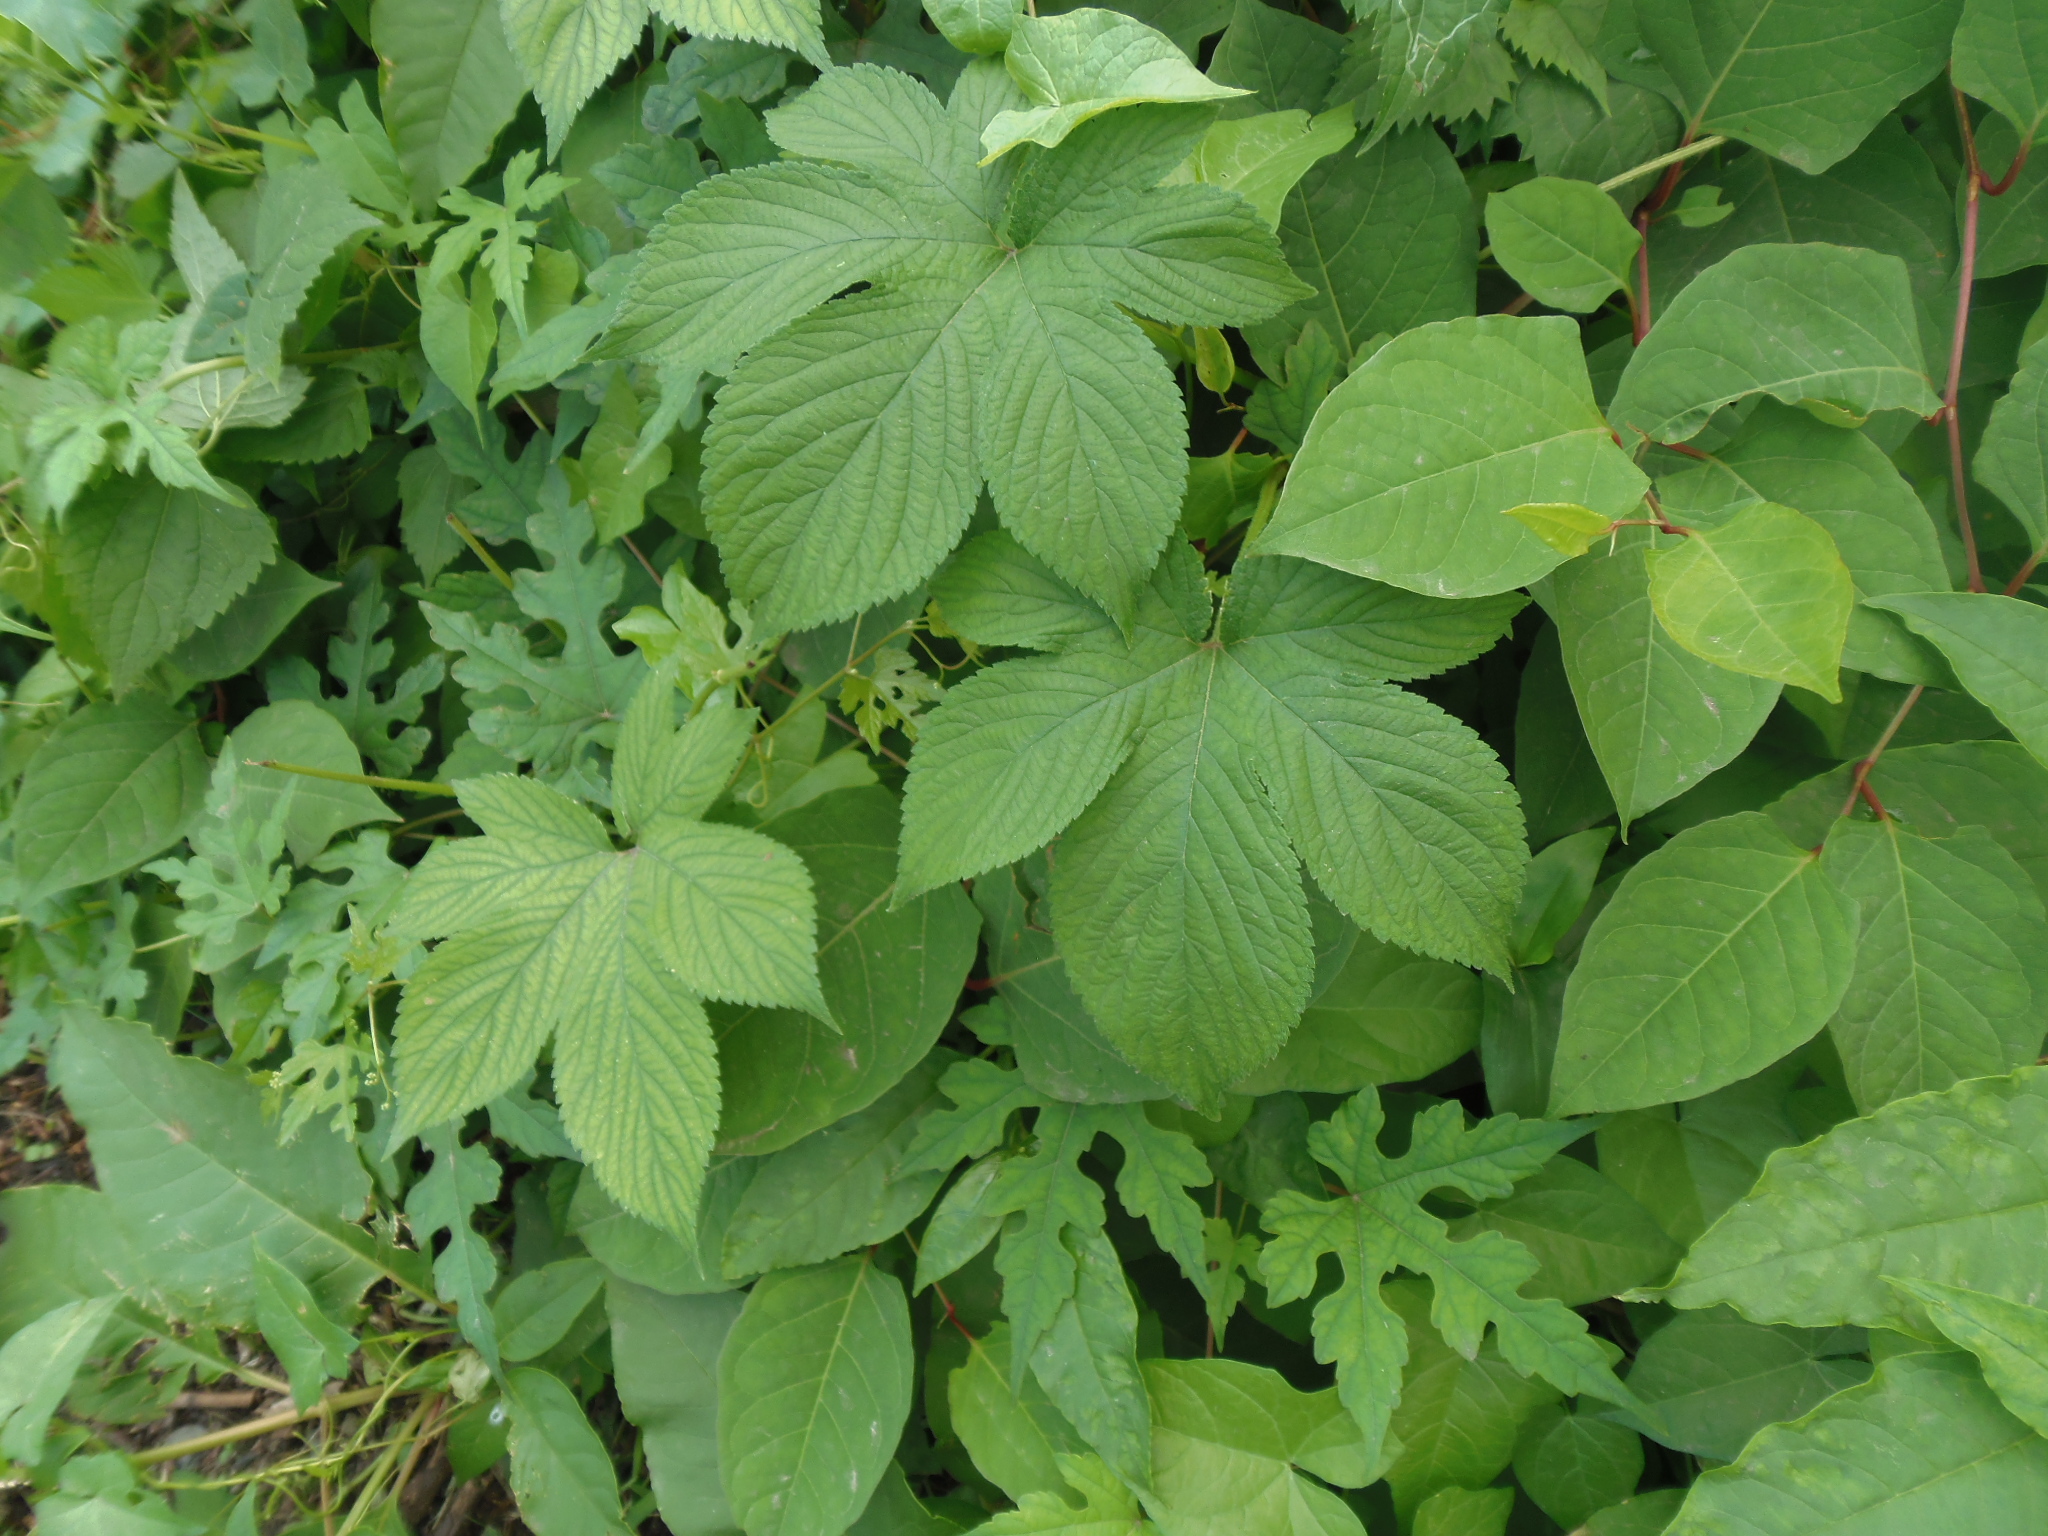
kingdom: Plantae
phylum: Tracheophyta
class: Magnoliopsida
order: Rosales
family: Cannabaceae
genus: Humulus
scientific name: Humulus scandens
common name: Japanese hop
